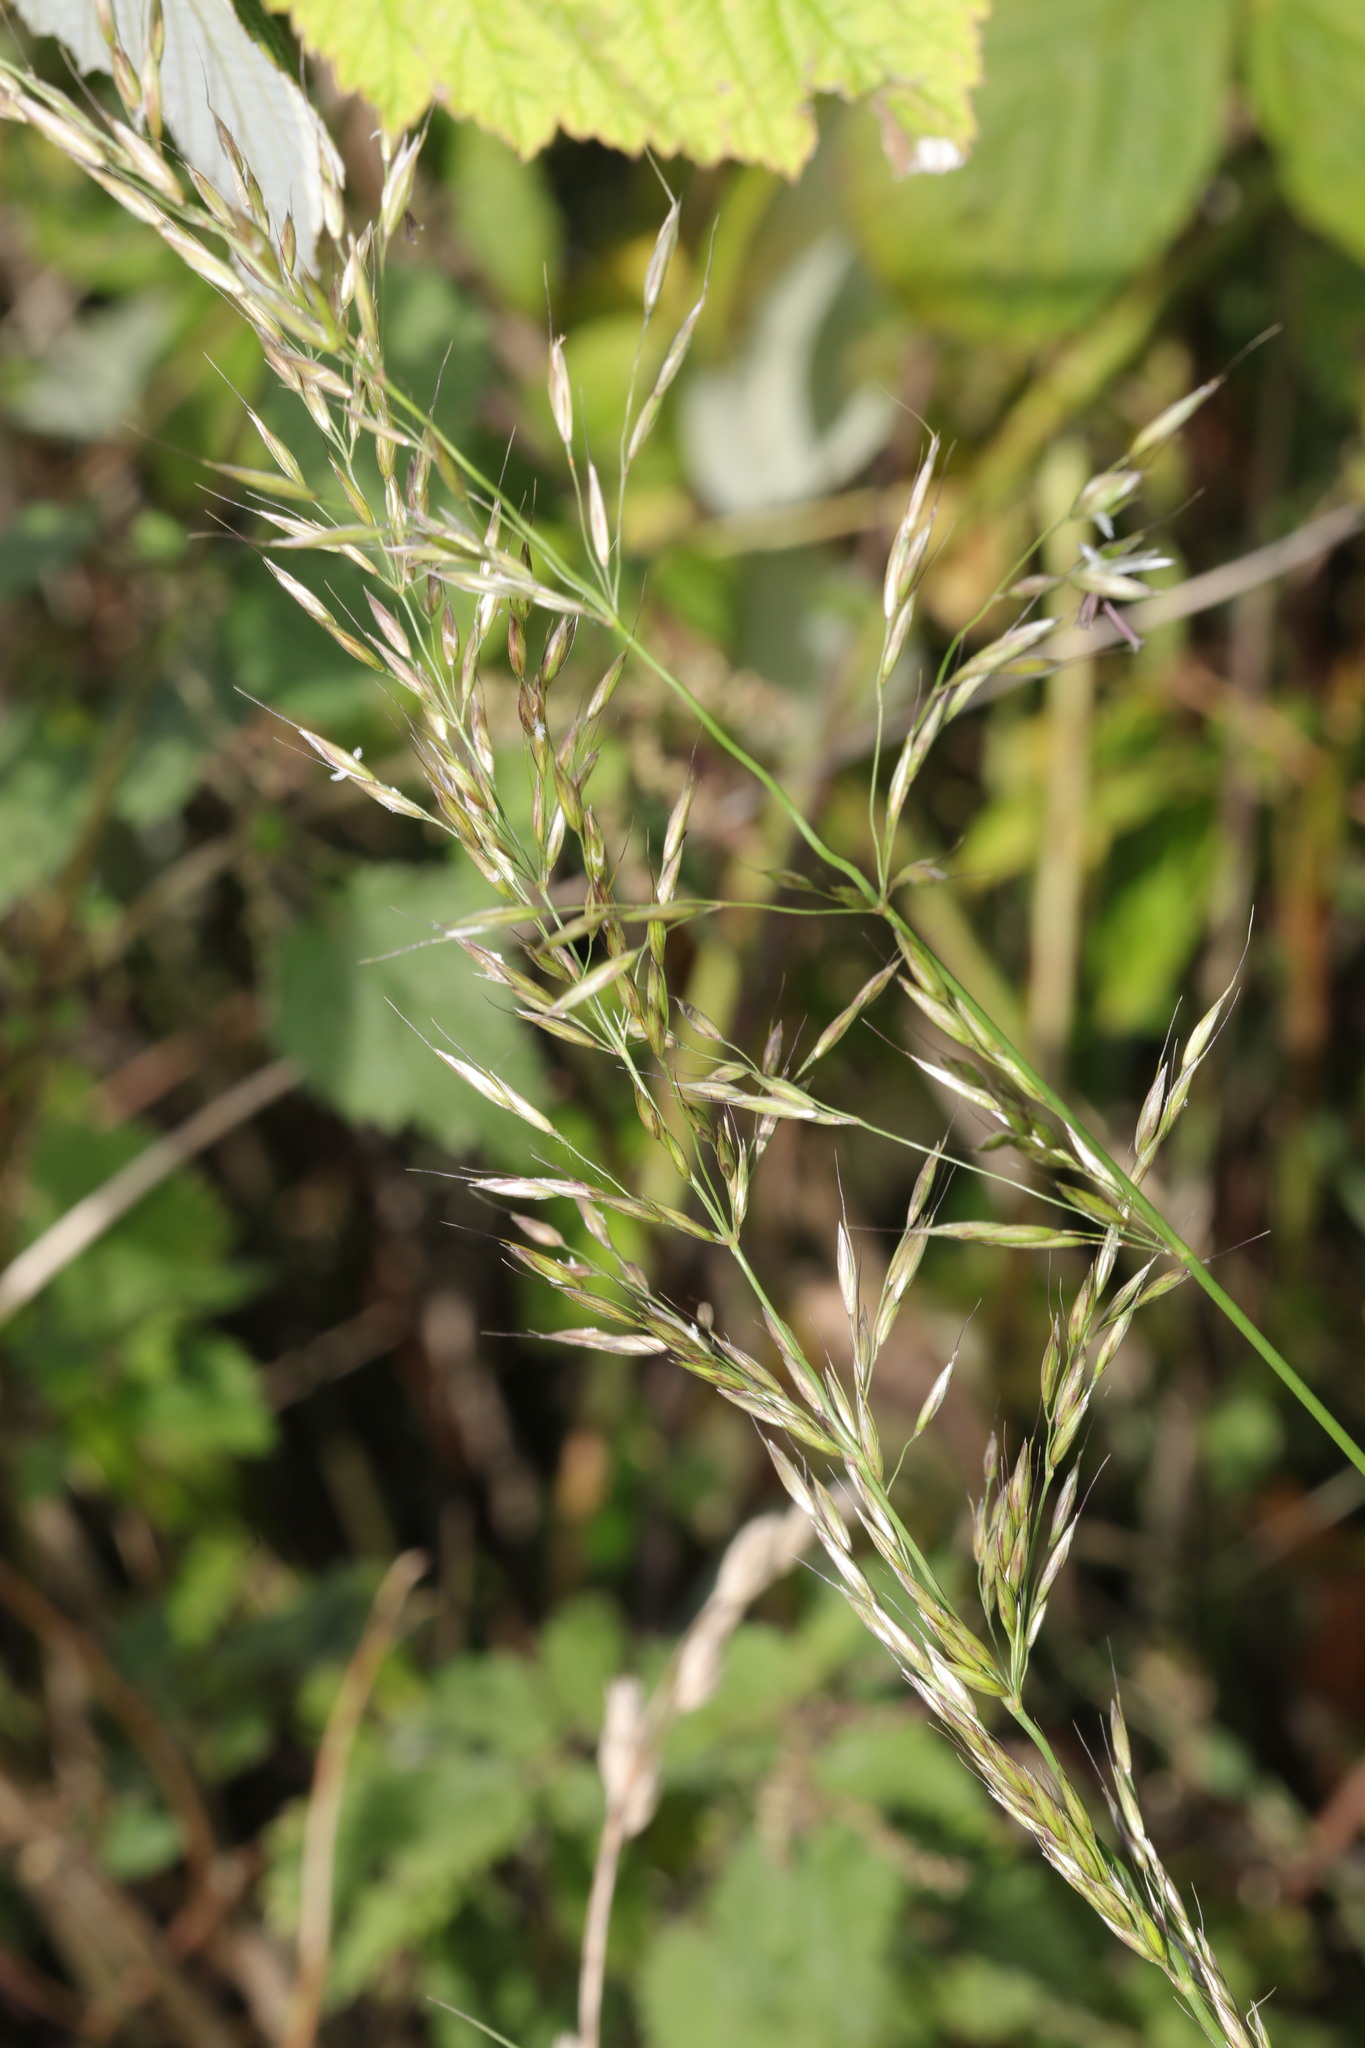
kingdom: Plantae
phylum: Tracheophyta
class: Liliopsida
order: Poales
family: Poaceae
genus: Arrhenatherum
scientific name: Arrhenatherum elatius
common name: Tall oatgrass
